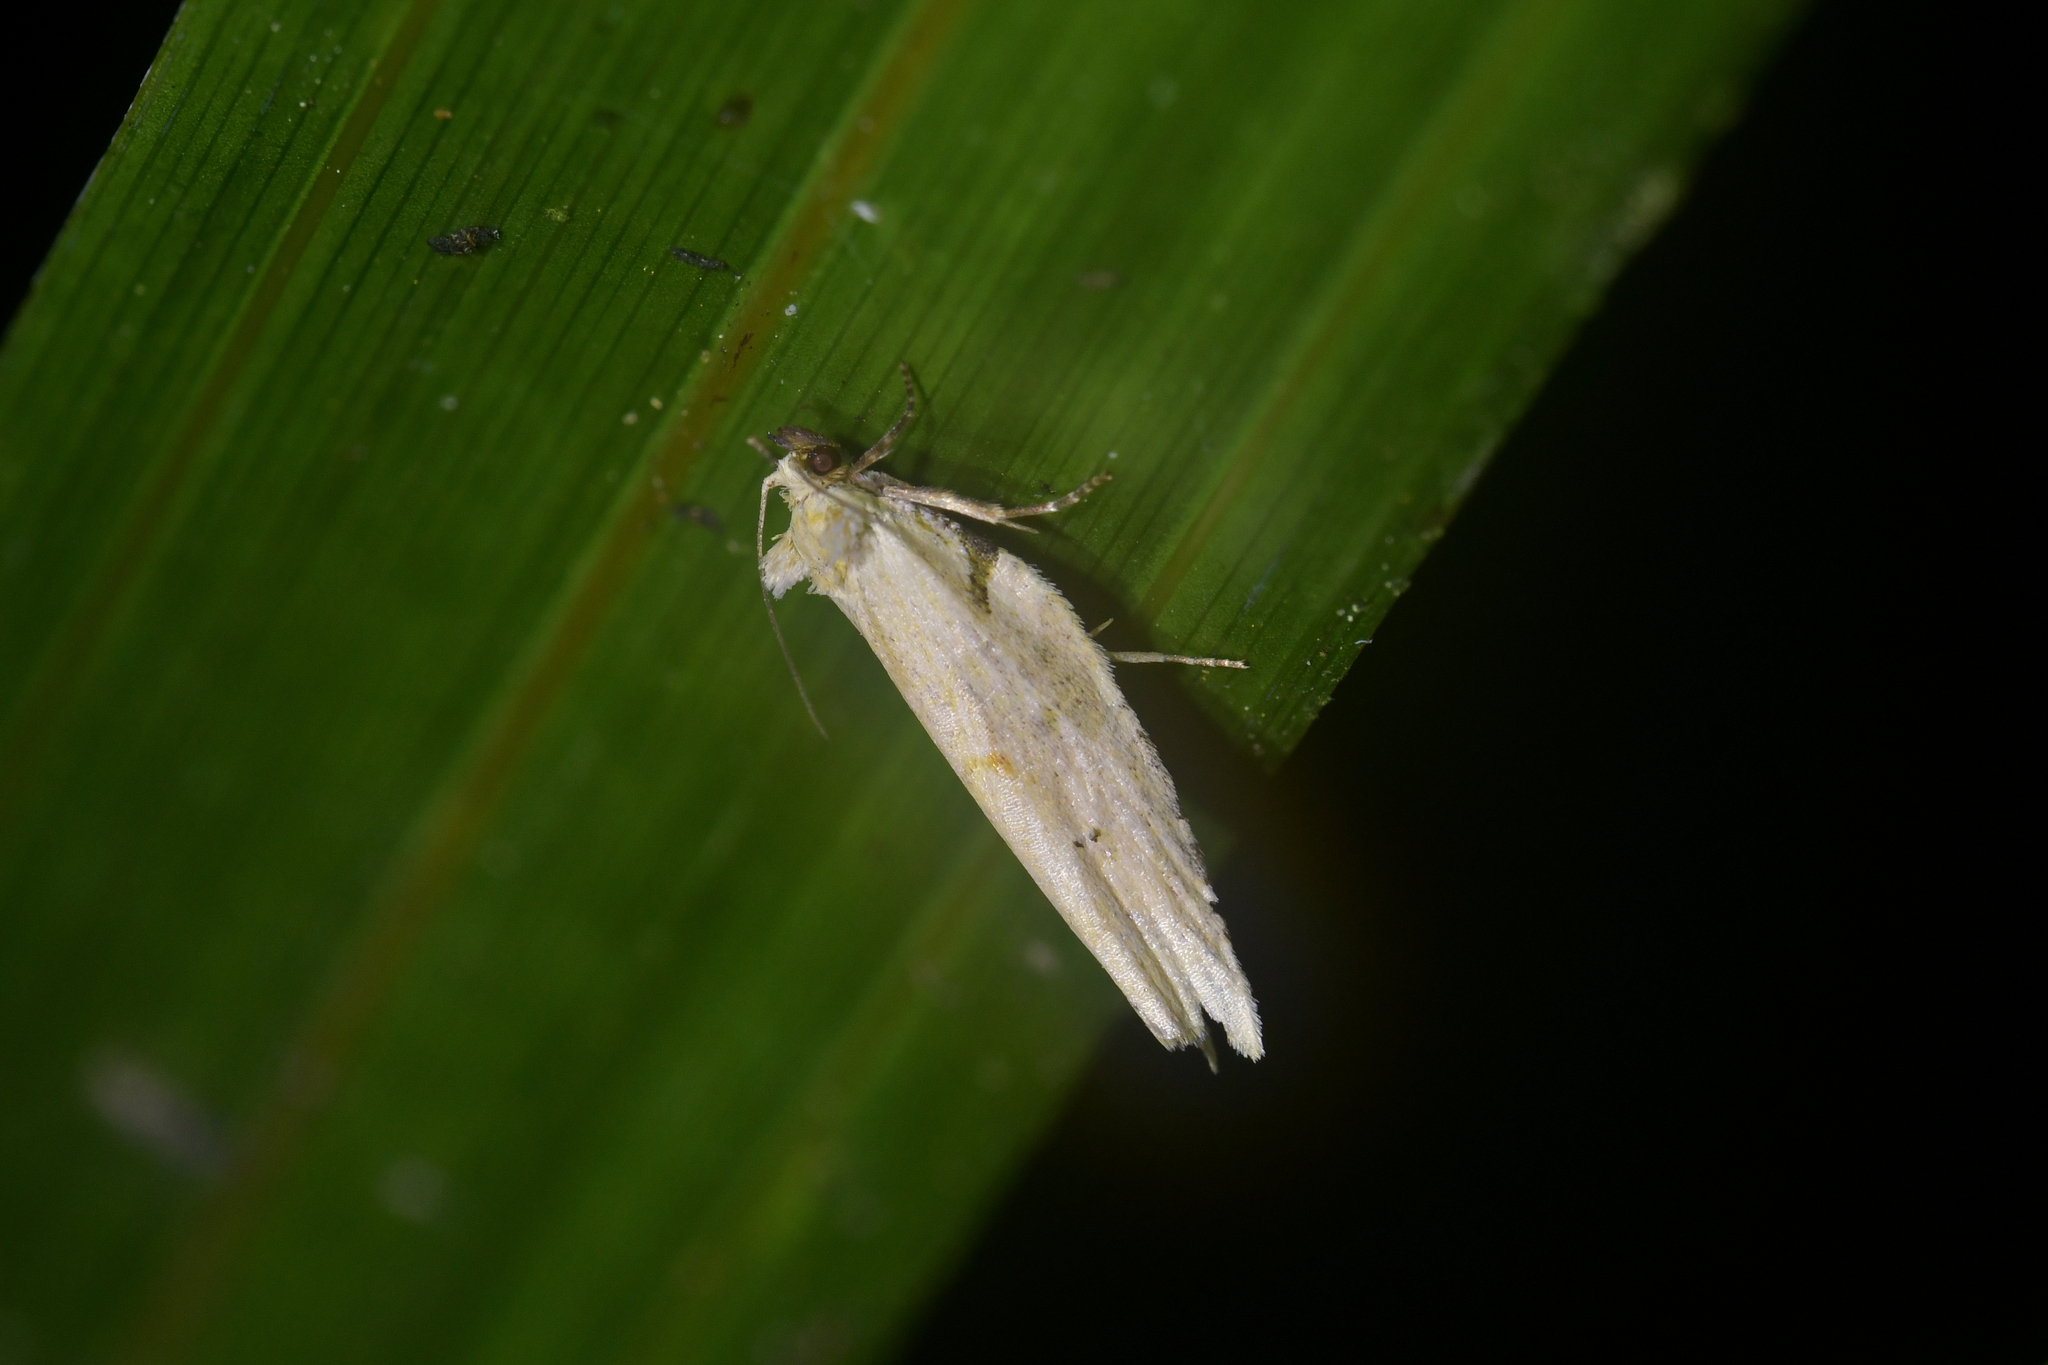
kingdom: Animalia
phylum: Arthropoda
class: Insecta
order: Lepidoptera
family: Tortricidae
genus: Epalxiphora
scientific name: Epalxiphora axenana
